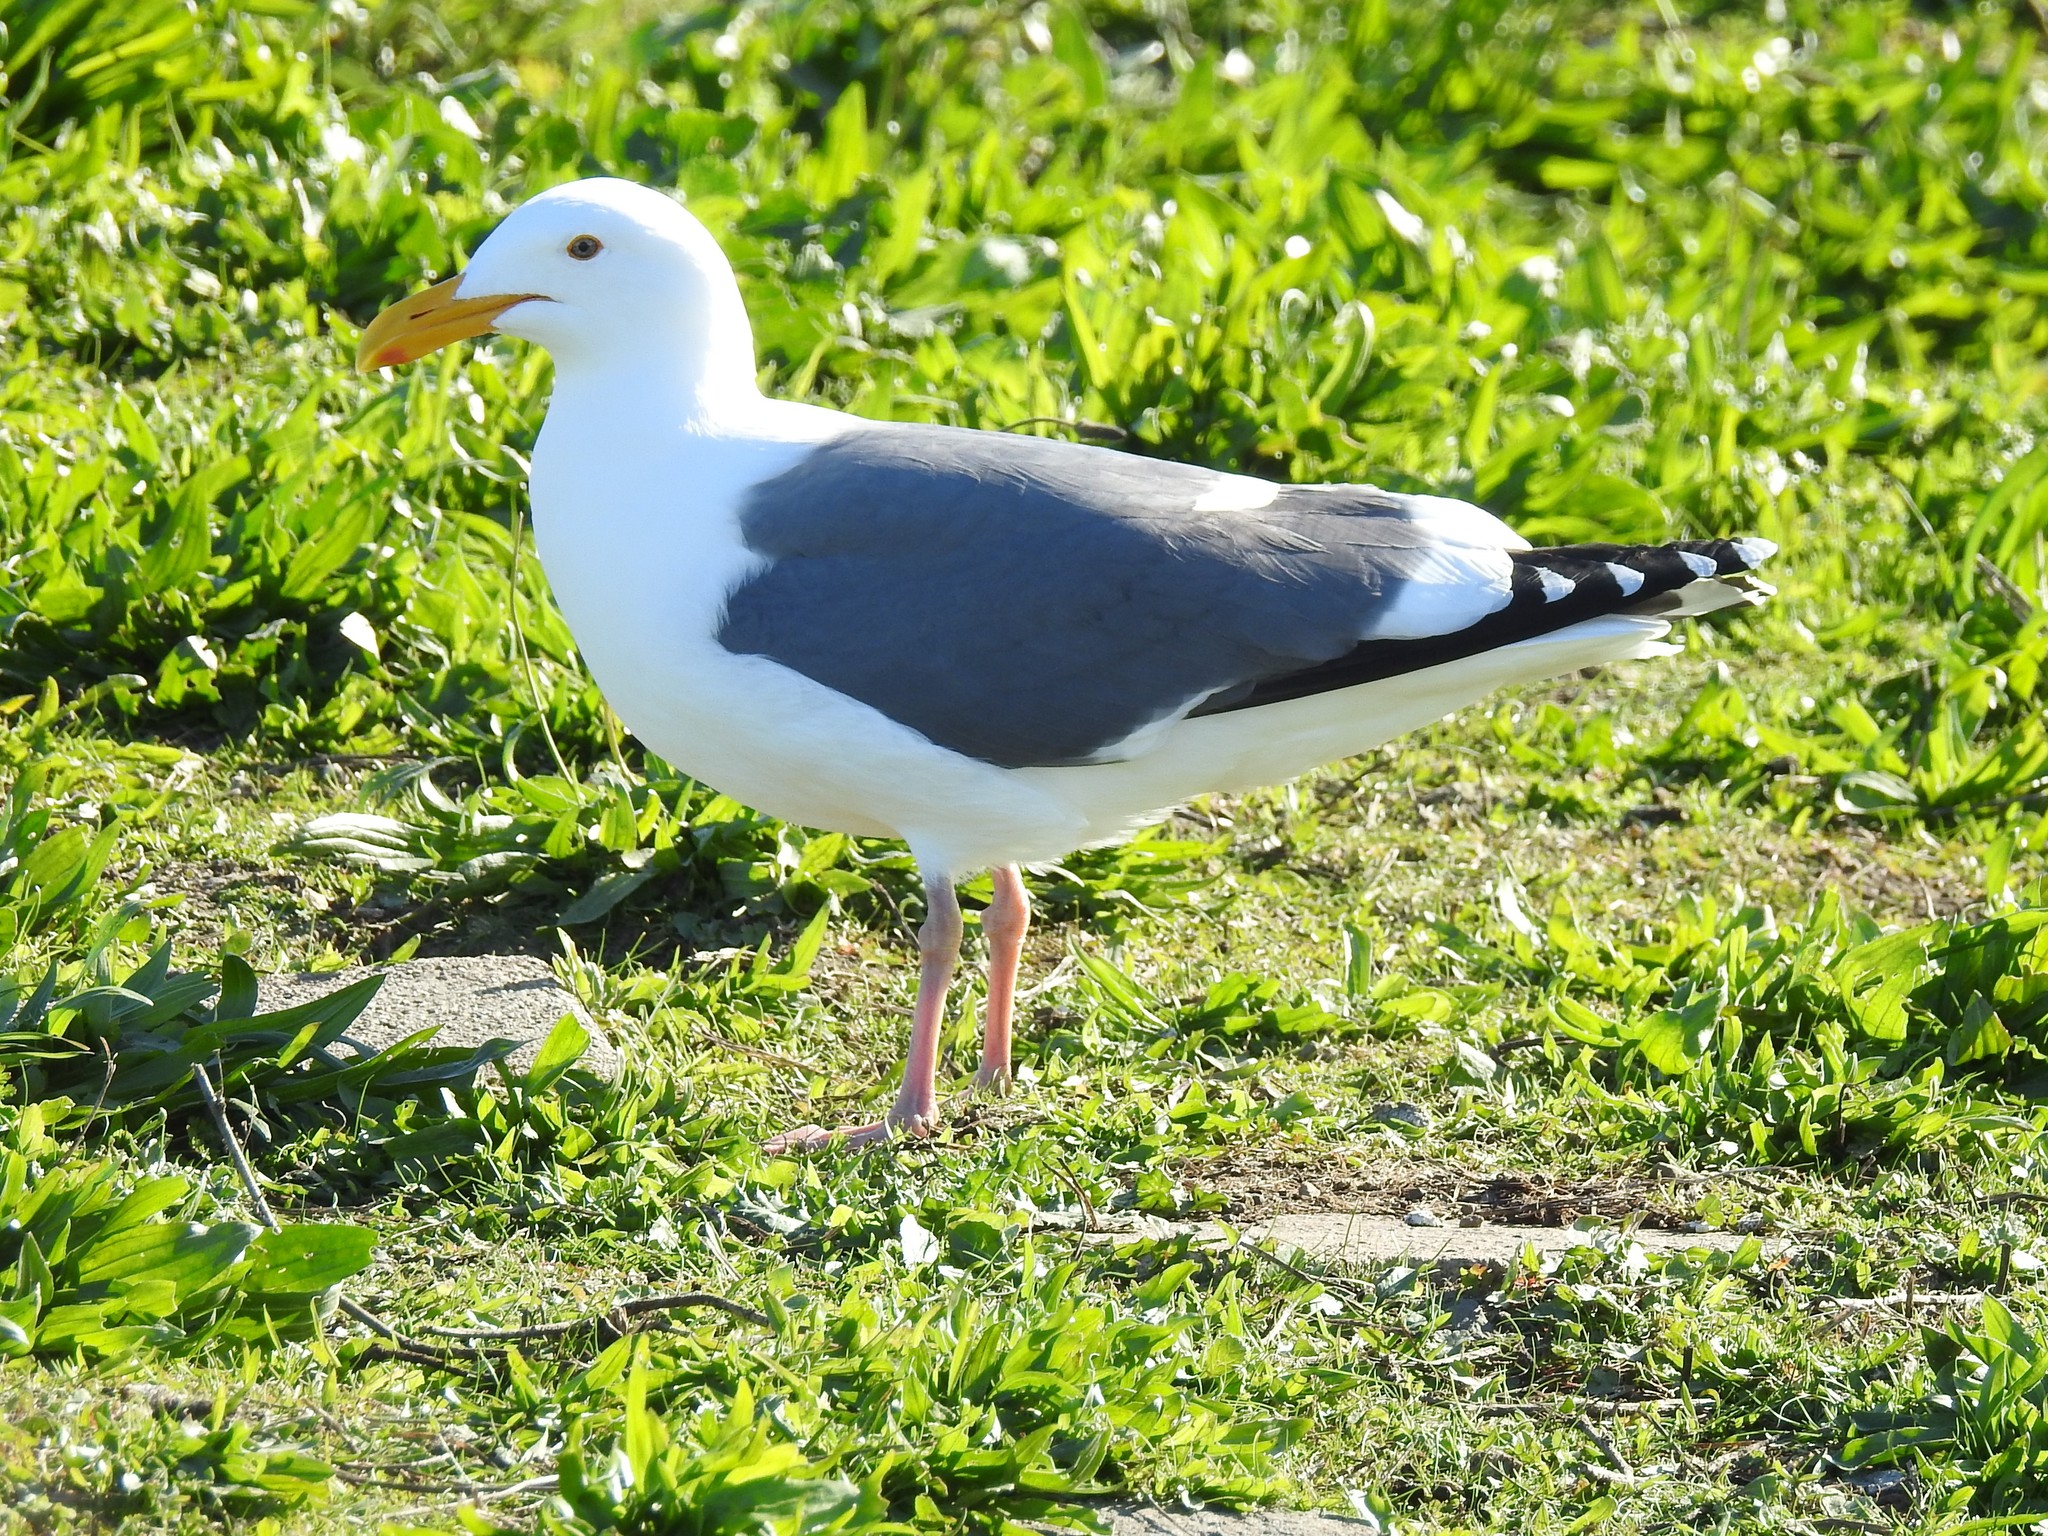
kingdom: Animalia
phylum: Chordata
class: Aves
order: Charadriiformes
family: Laridae
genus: Larus
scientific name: Larus occidentalis
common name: Western gull
